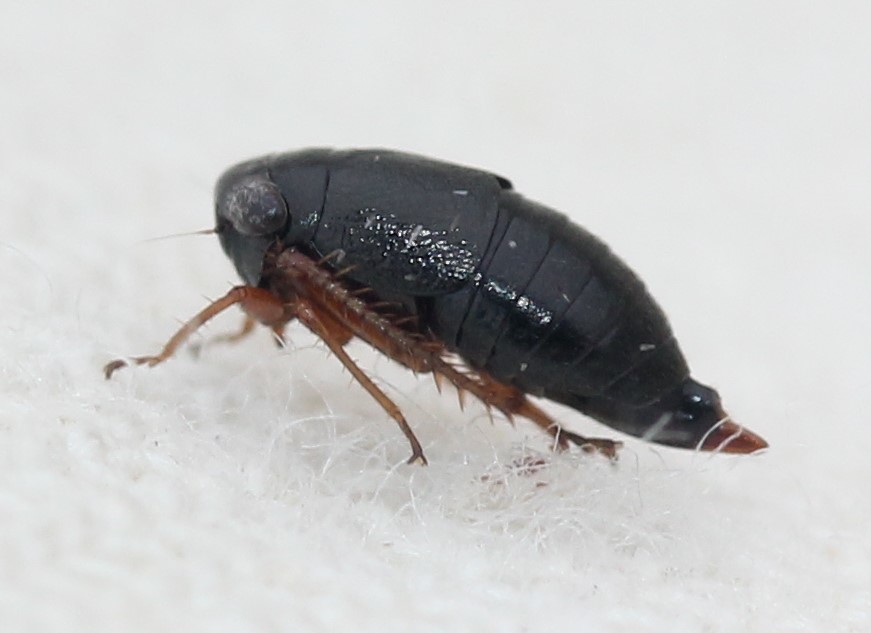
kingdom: Animalia
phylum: Arthropoda
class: Insecta
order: Hemiptera
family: Cicadellidae
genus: Driotura
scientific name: Driotura gammaroides
